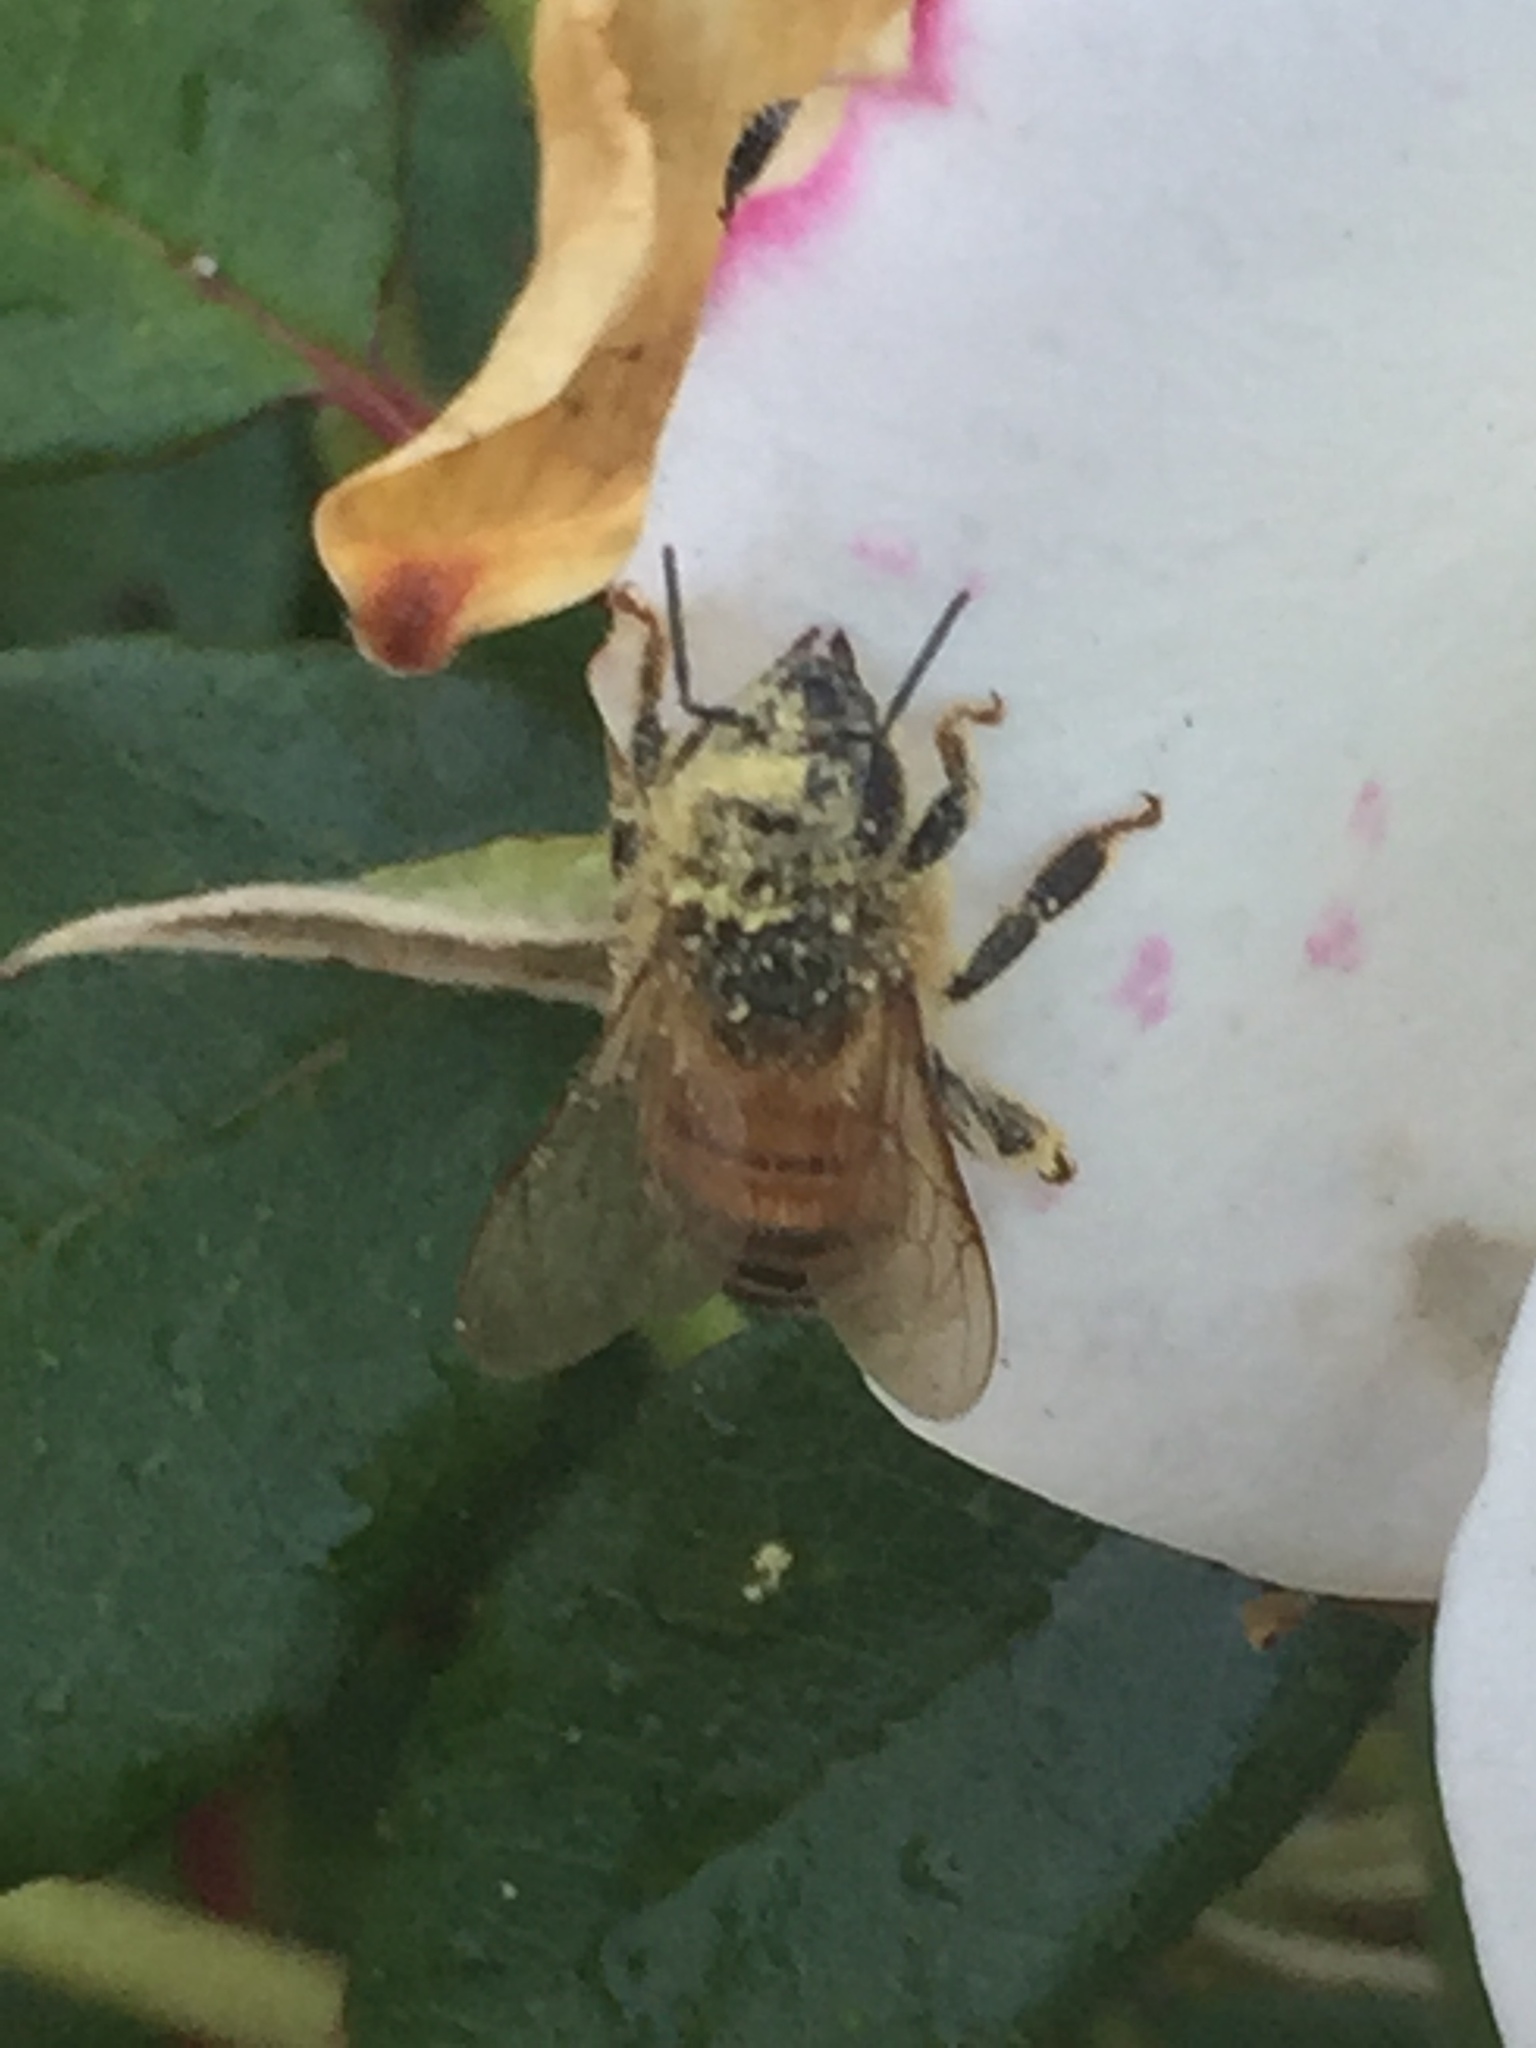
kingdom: Animalia
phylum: Arthropoda
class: Insecta
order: Hymenoptera
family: Apidae
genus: Apis
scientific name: Apis mellifera
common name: Honey bee
